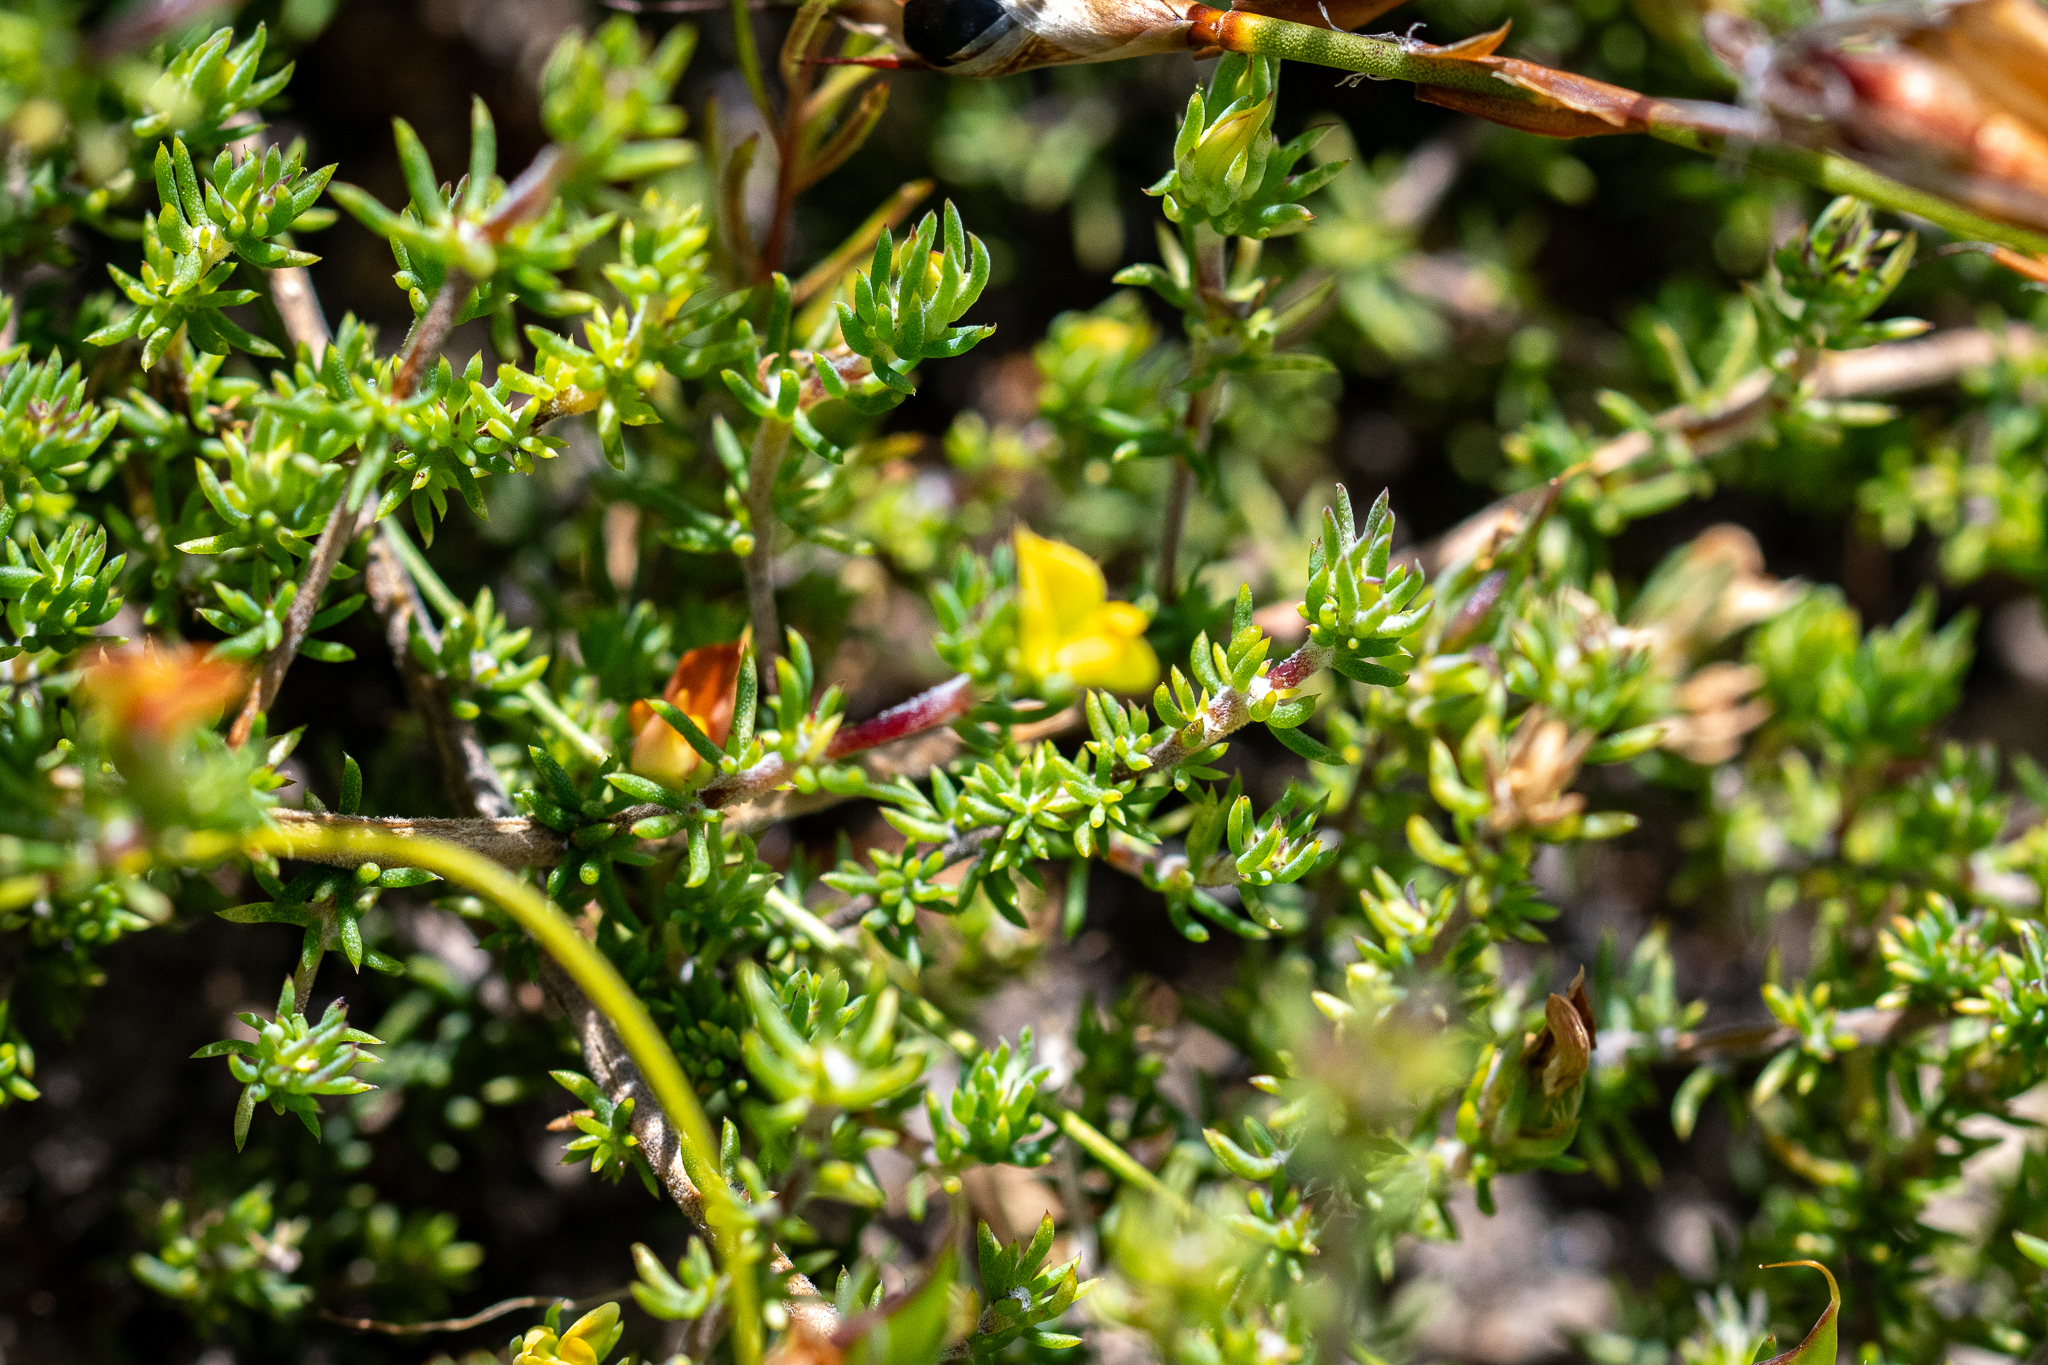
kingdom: Plantae
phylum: Tracheophyta
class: Magnoliopsida
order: Fabales
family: Fabaceae
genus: Aspalathus
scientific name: Aspalathus juniperina
